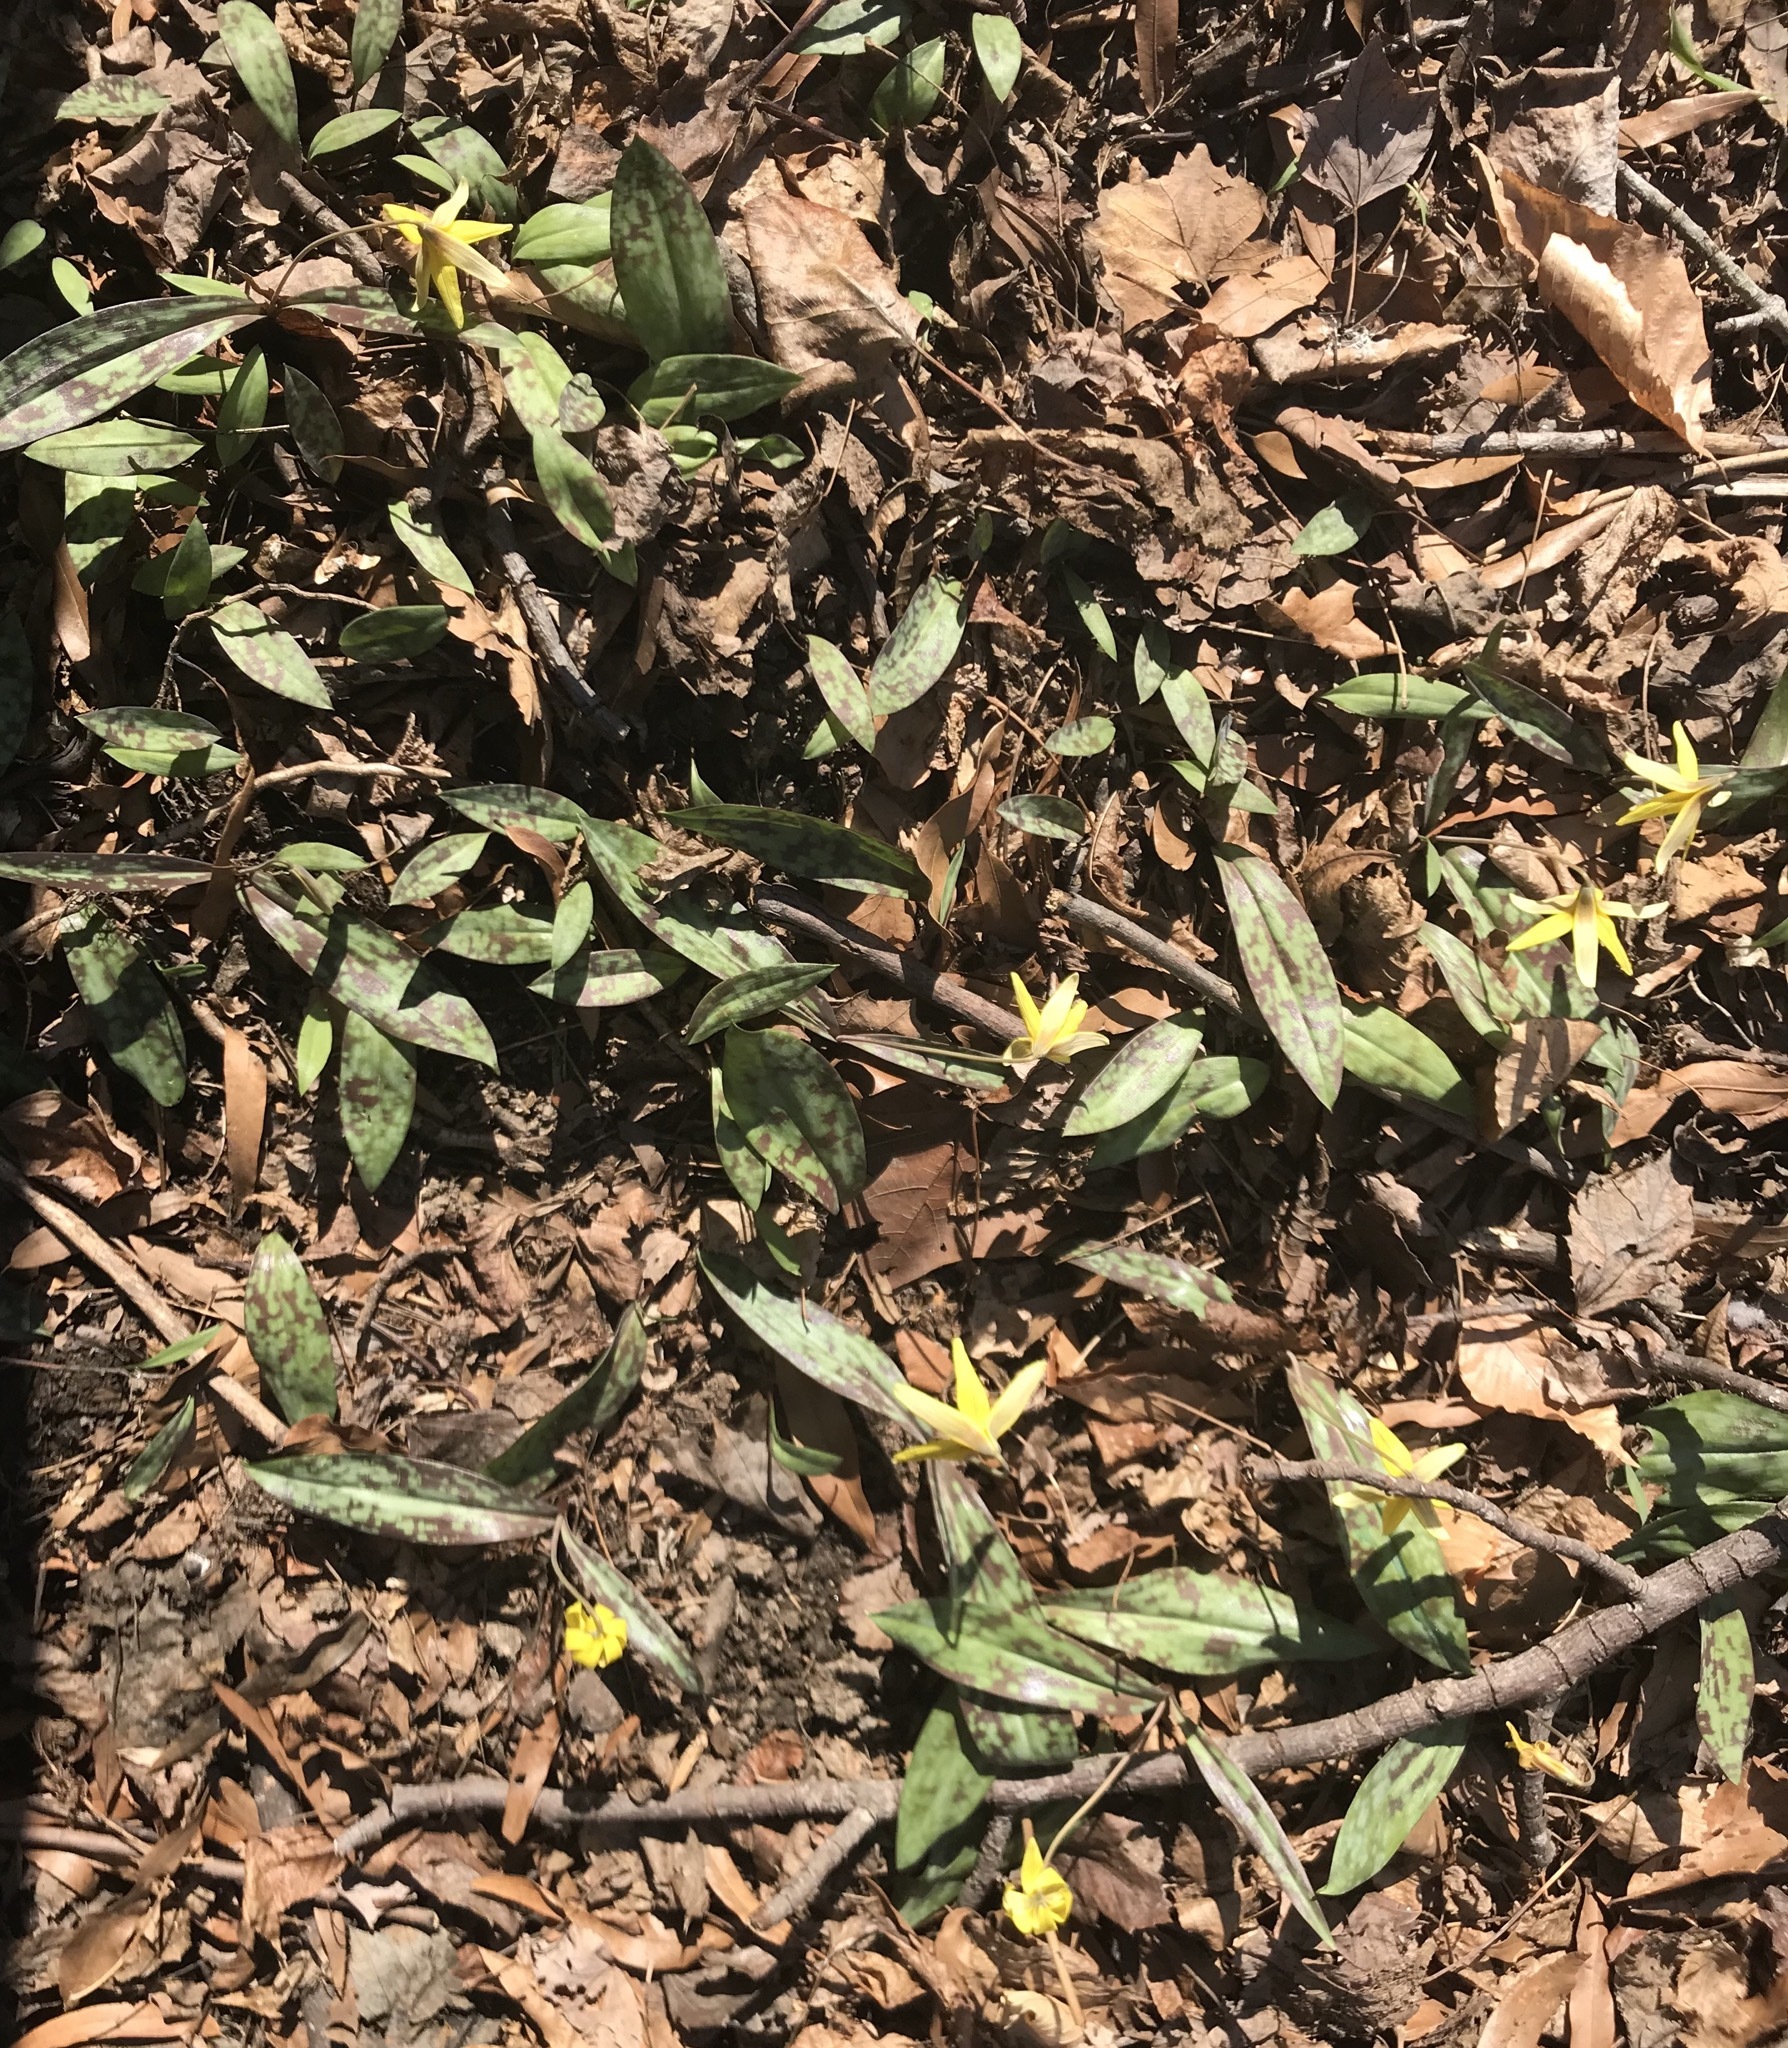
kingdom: Plantae
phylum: Tracheophyta
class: Liliopsida
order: Liliales
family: Liliaceae
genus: Erythronium
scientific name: Erythronium americanum
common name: Yellow adder's-tongue
